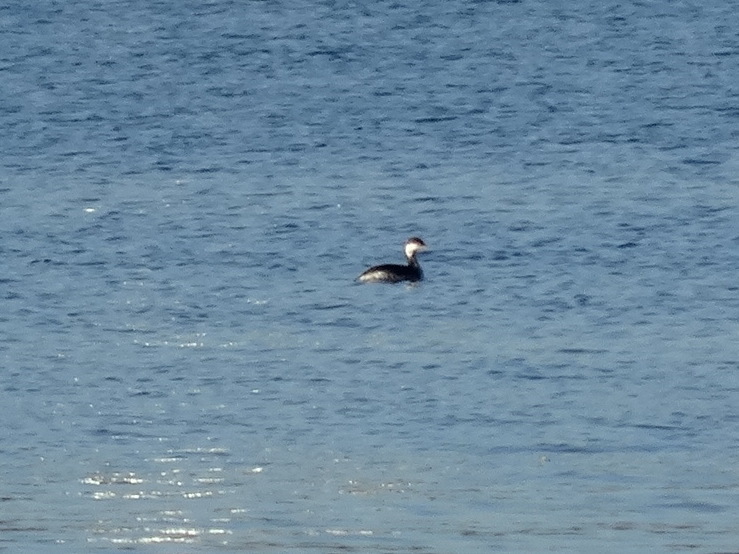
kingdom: Animalia
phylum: Chordata
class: Aves
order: Podicipediformes
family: Podicipedidae
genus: Podiceps
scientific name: Podiceps auritus
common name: Horned grebe
